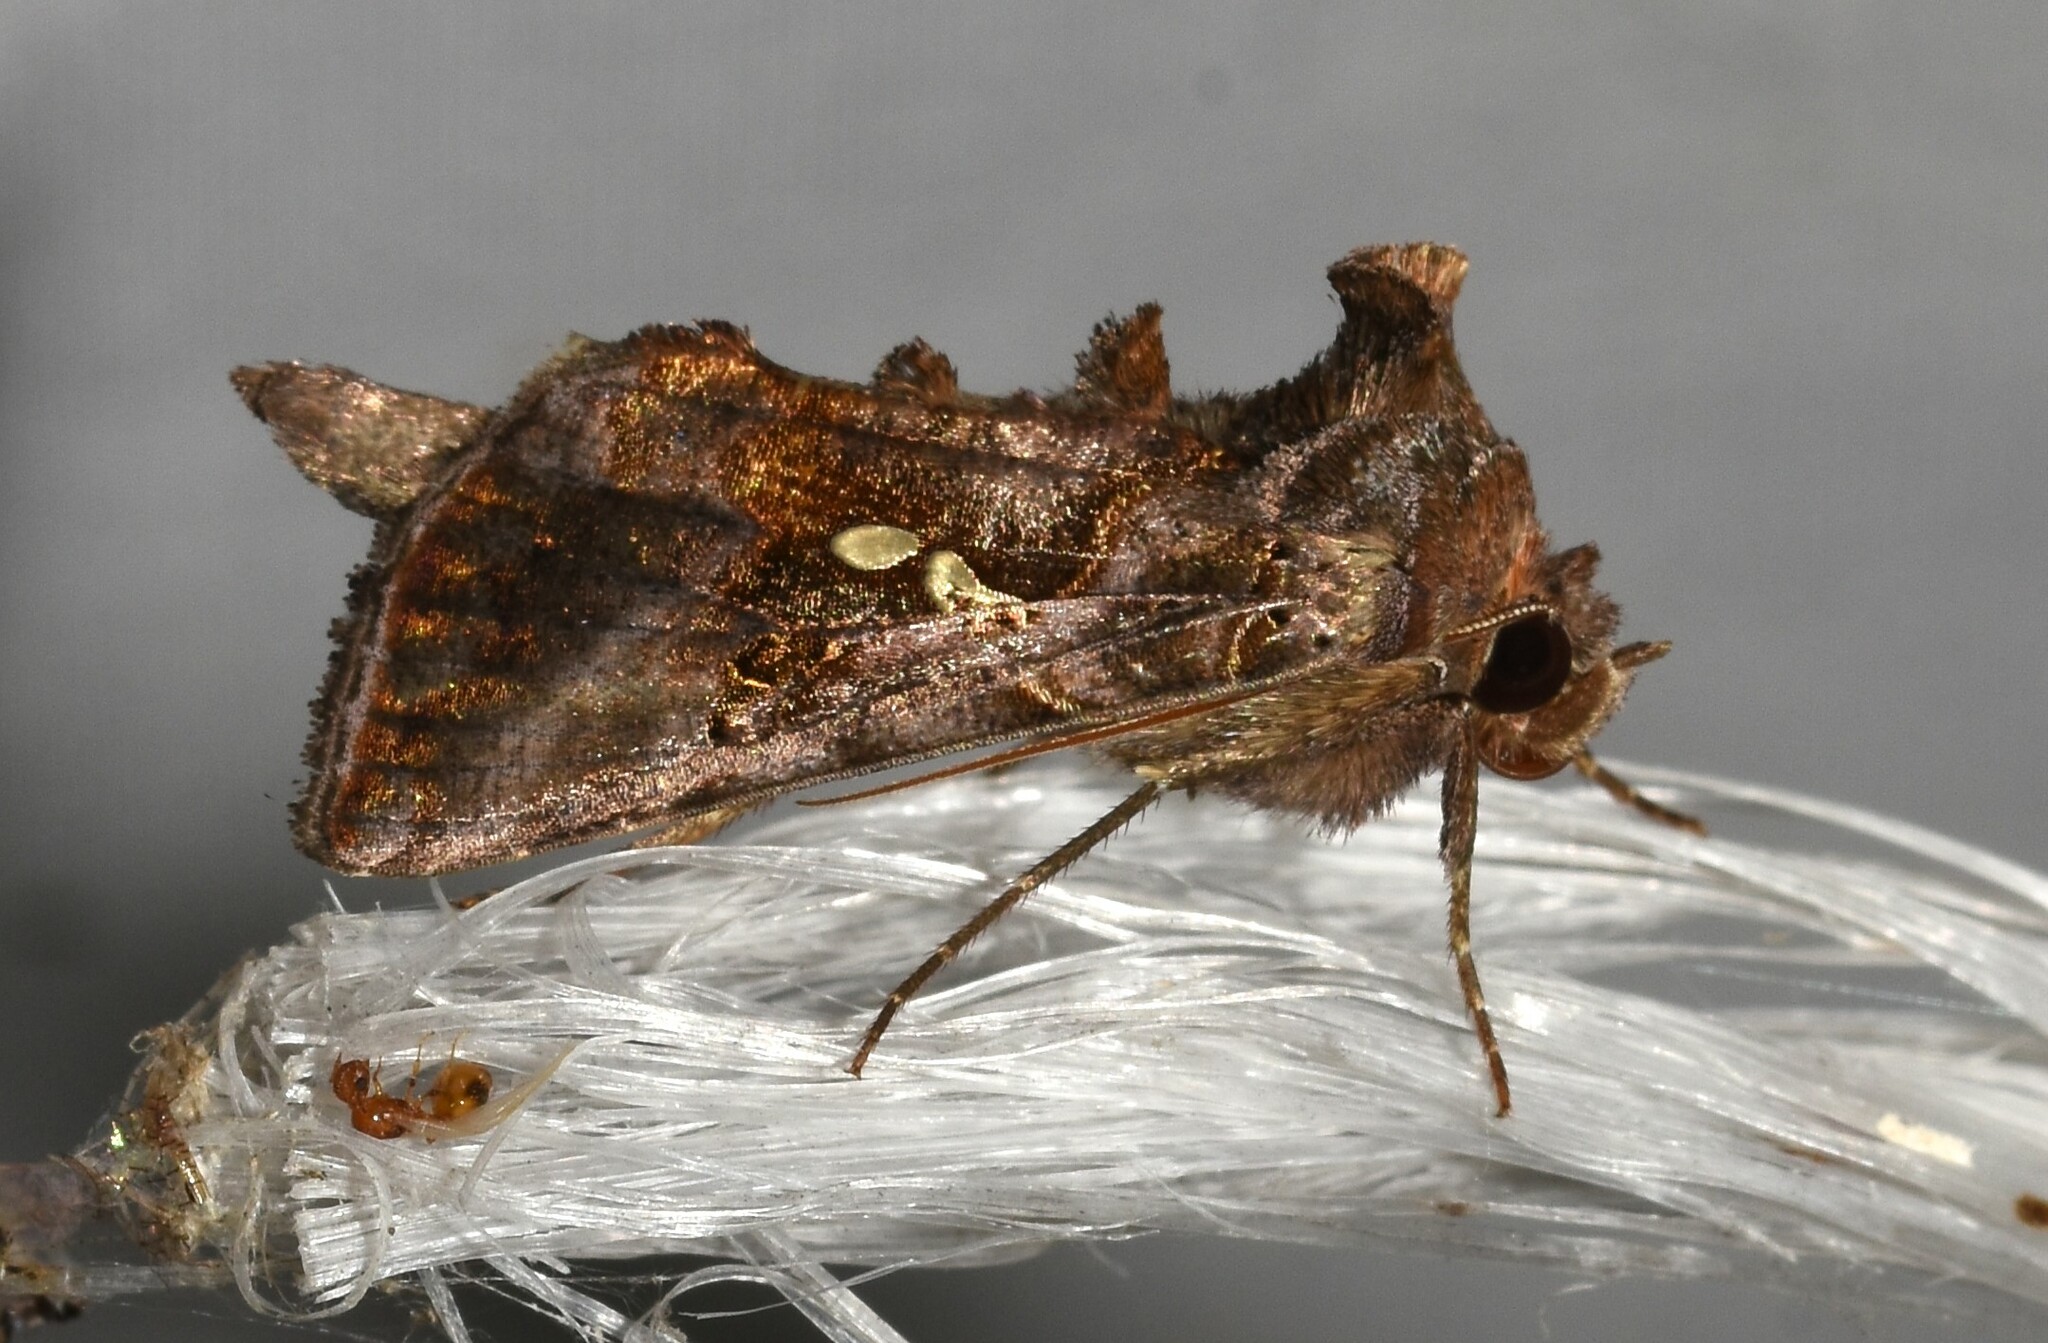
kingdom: Animalia
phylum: Arthropoda
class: Insecta
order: Lepidoptera
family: Noctuidae
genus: Autographa
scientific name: Autographa precationis
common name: Common looper moth
